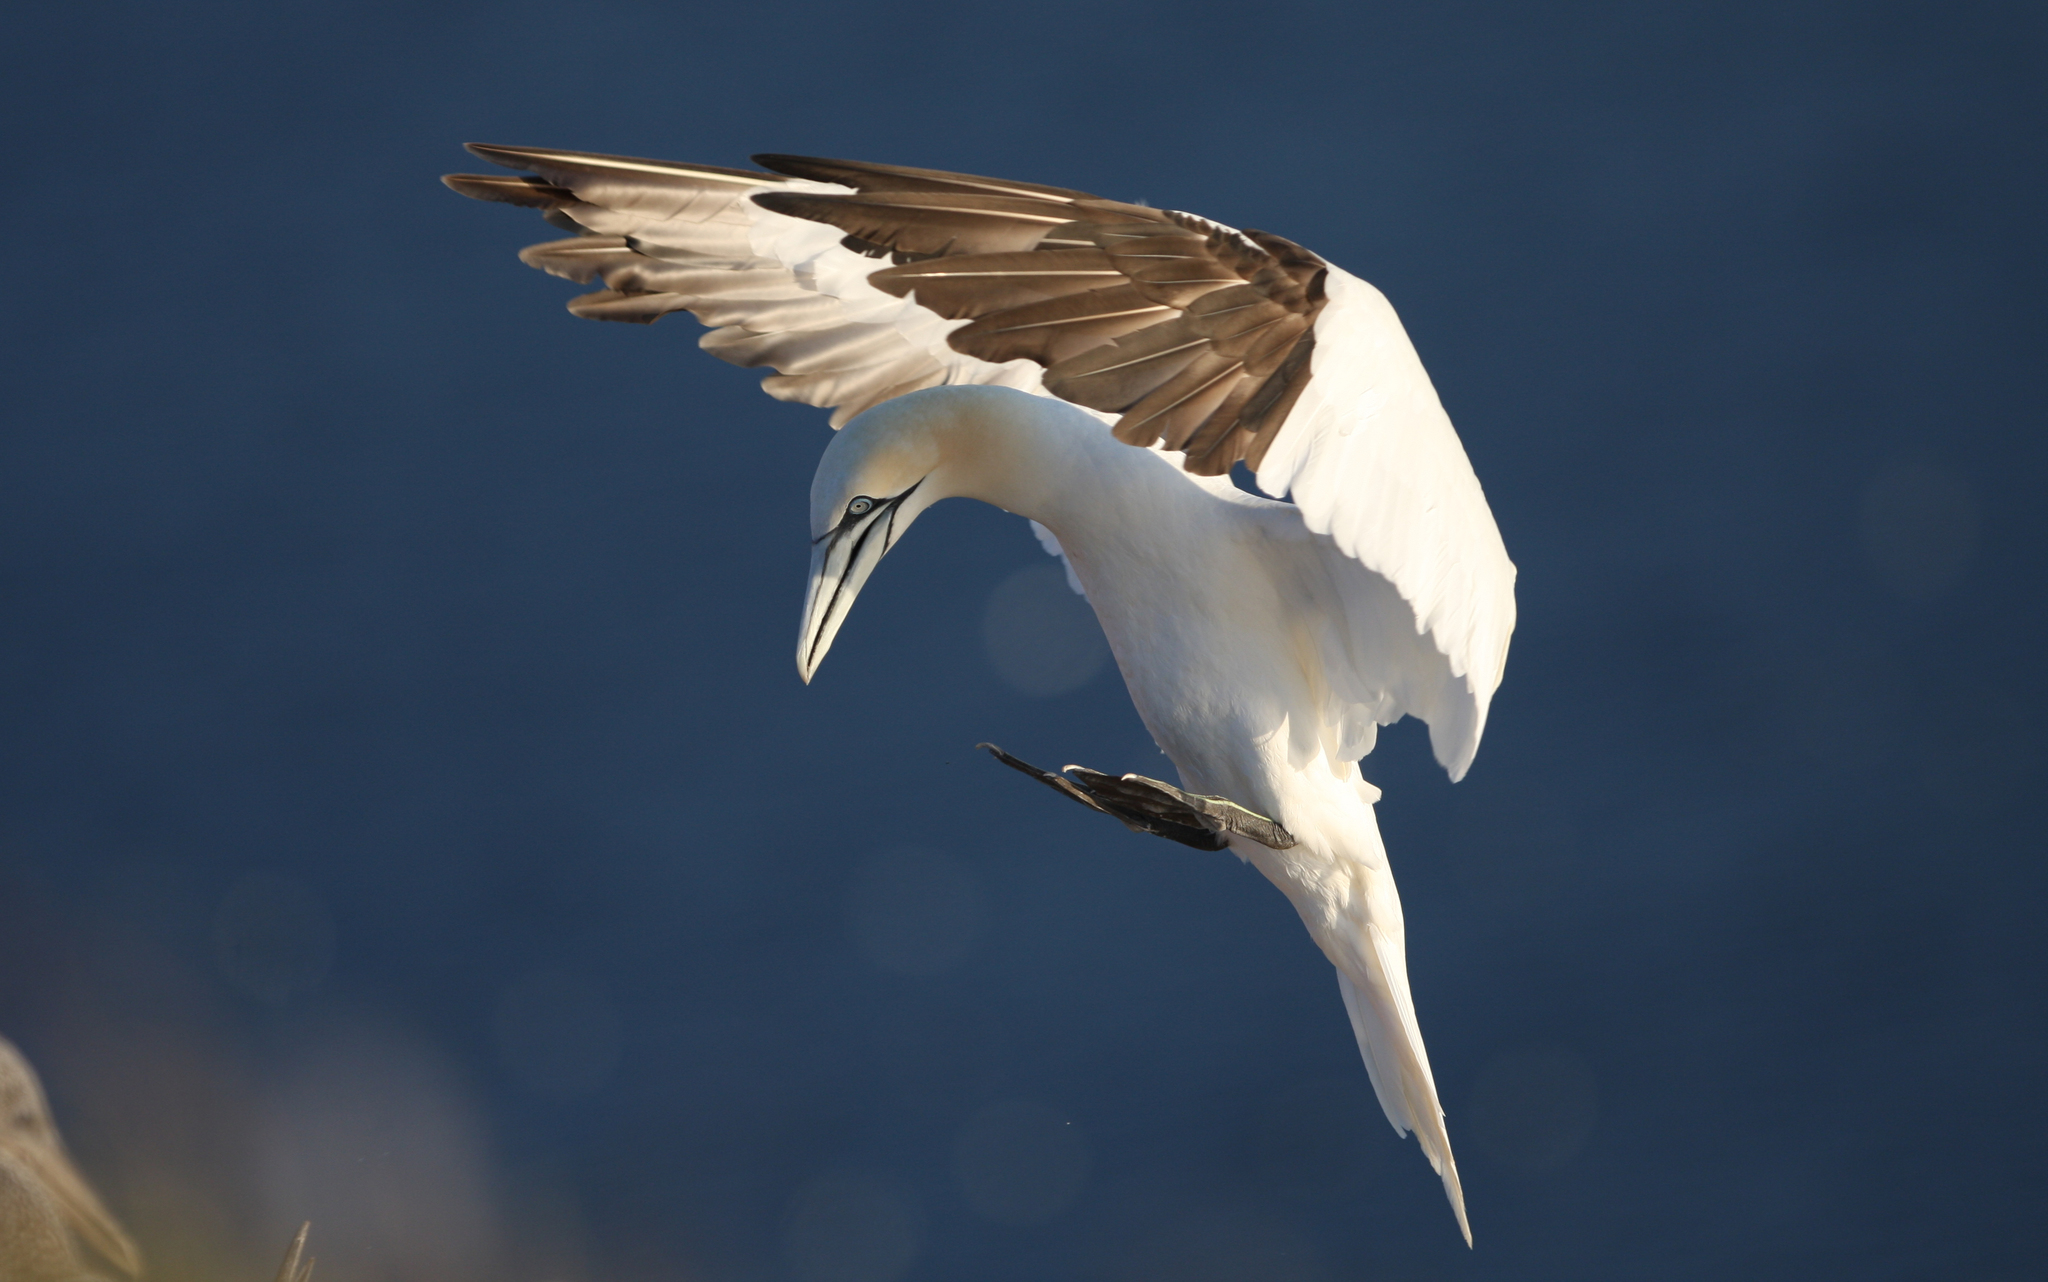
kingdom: Animalia
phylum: Chordata
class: Aves
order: Suliformes
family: Sulidae
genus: Morus
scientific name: Morus bassanus
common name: Northern gannet
